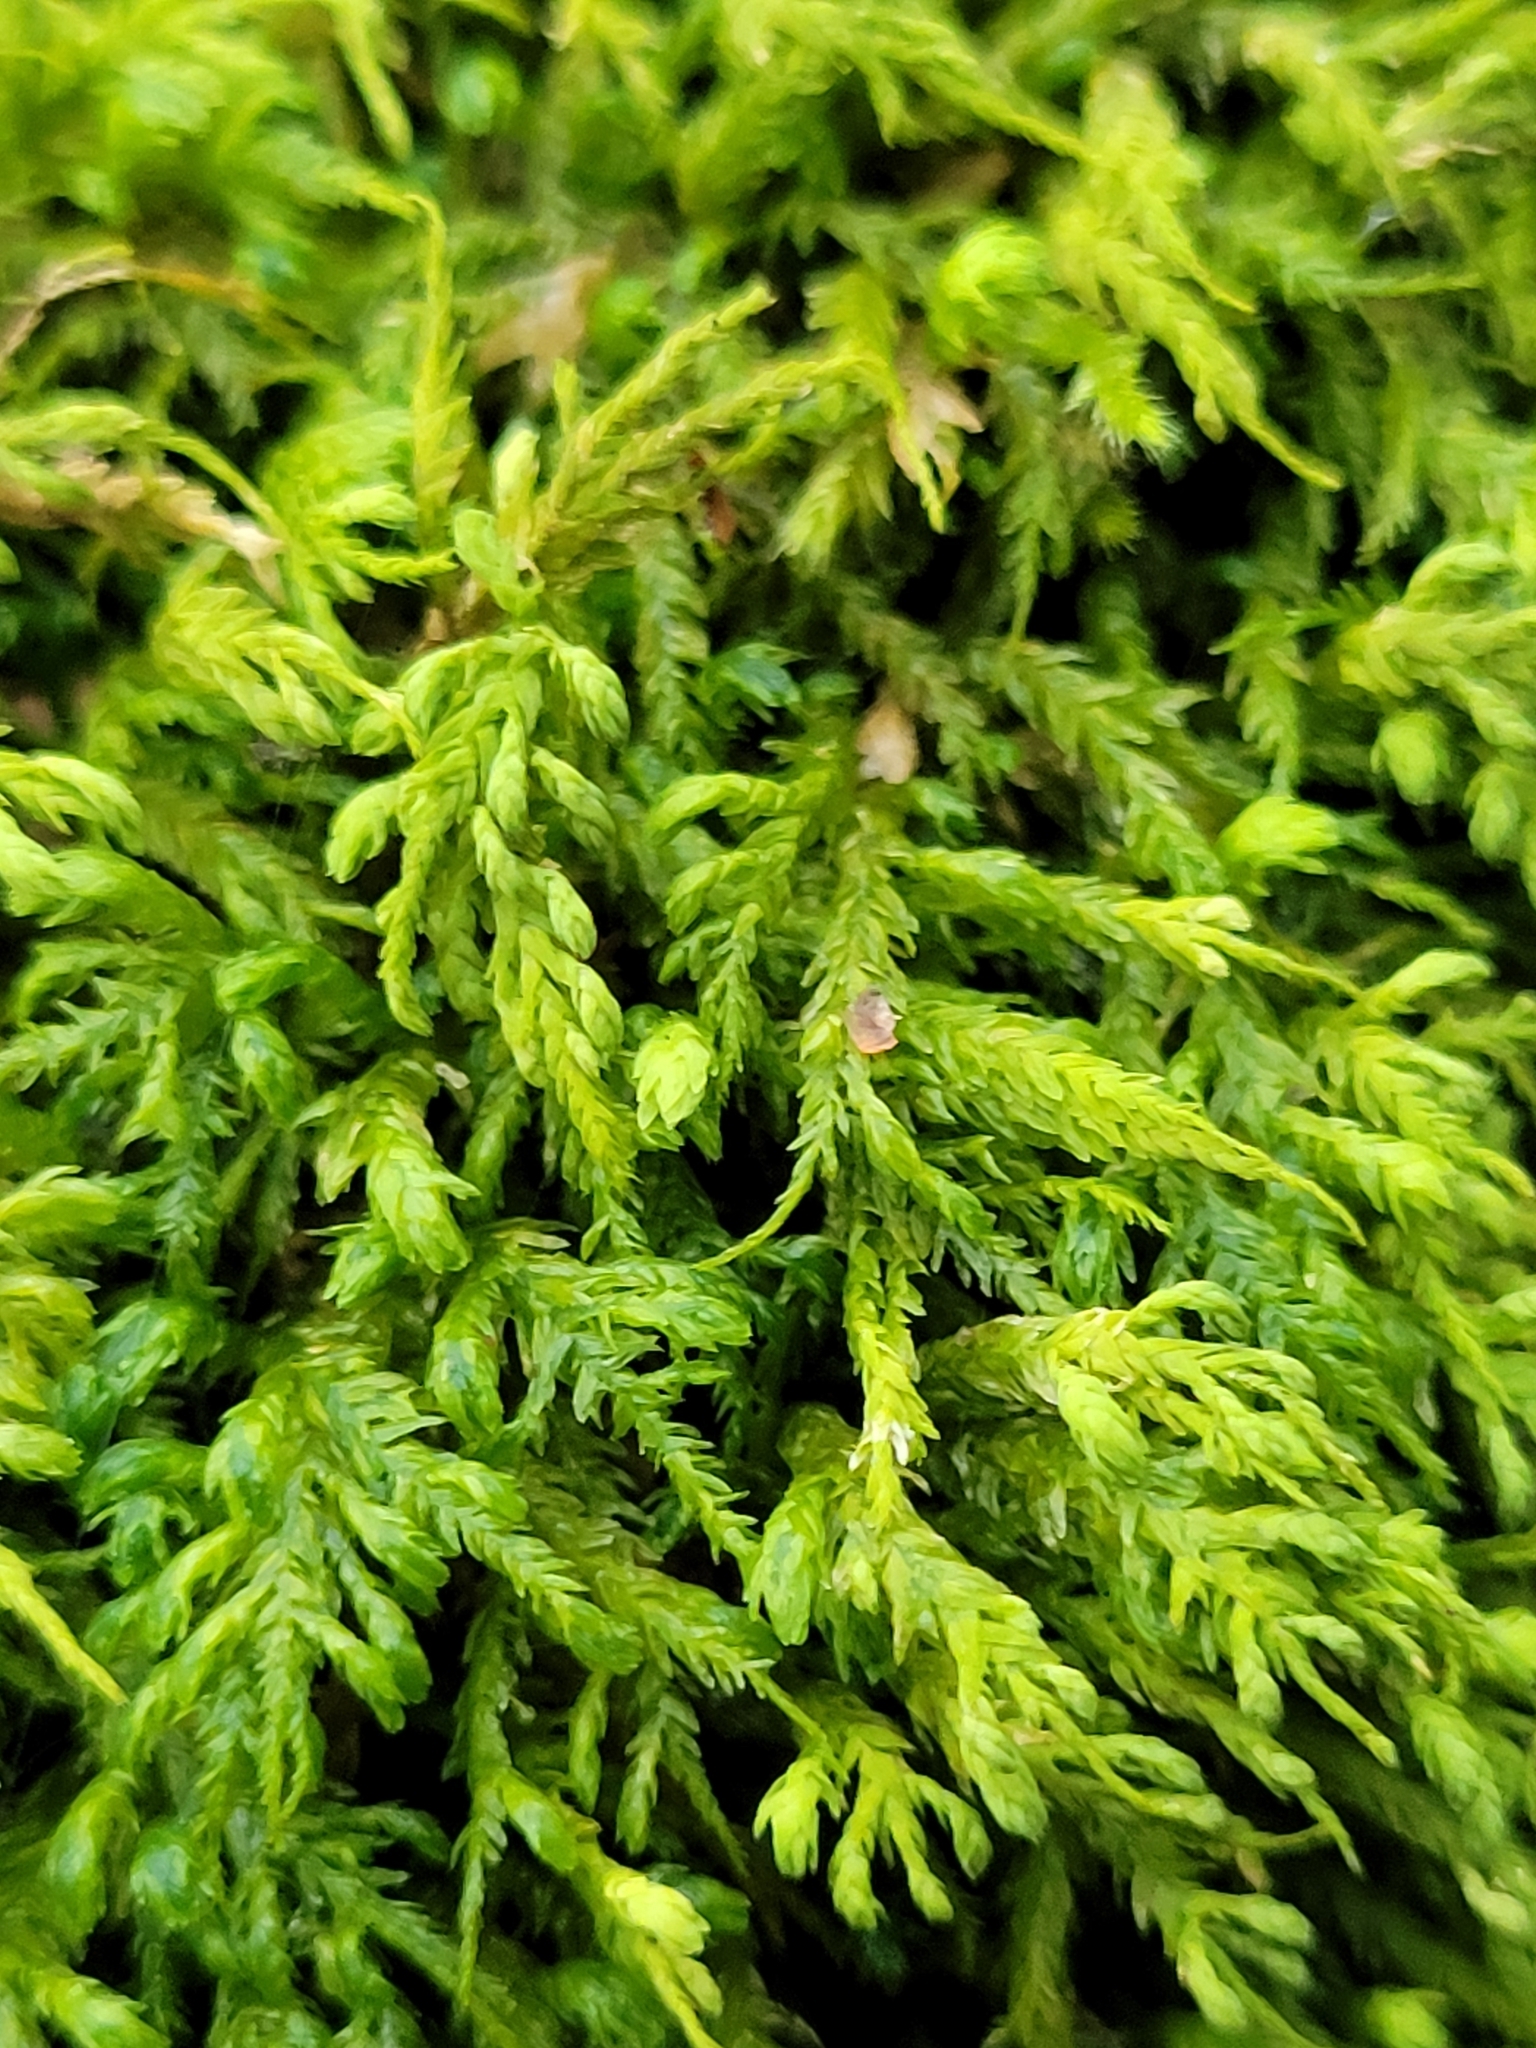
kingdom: Plantae
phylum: Bryophyta
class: Bryopsida
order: Hypnales
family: Neckeraceae
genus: Pseudanomodon
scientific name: Pseudanomodon attenuatus
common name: Tree-skirt moss
